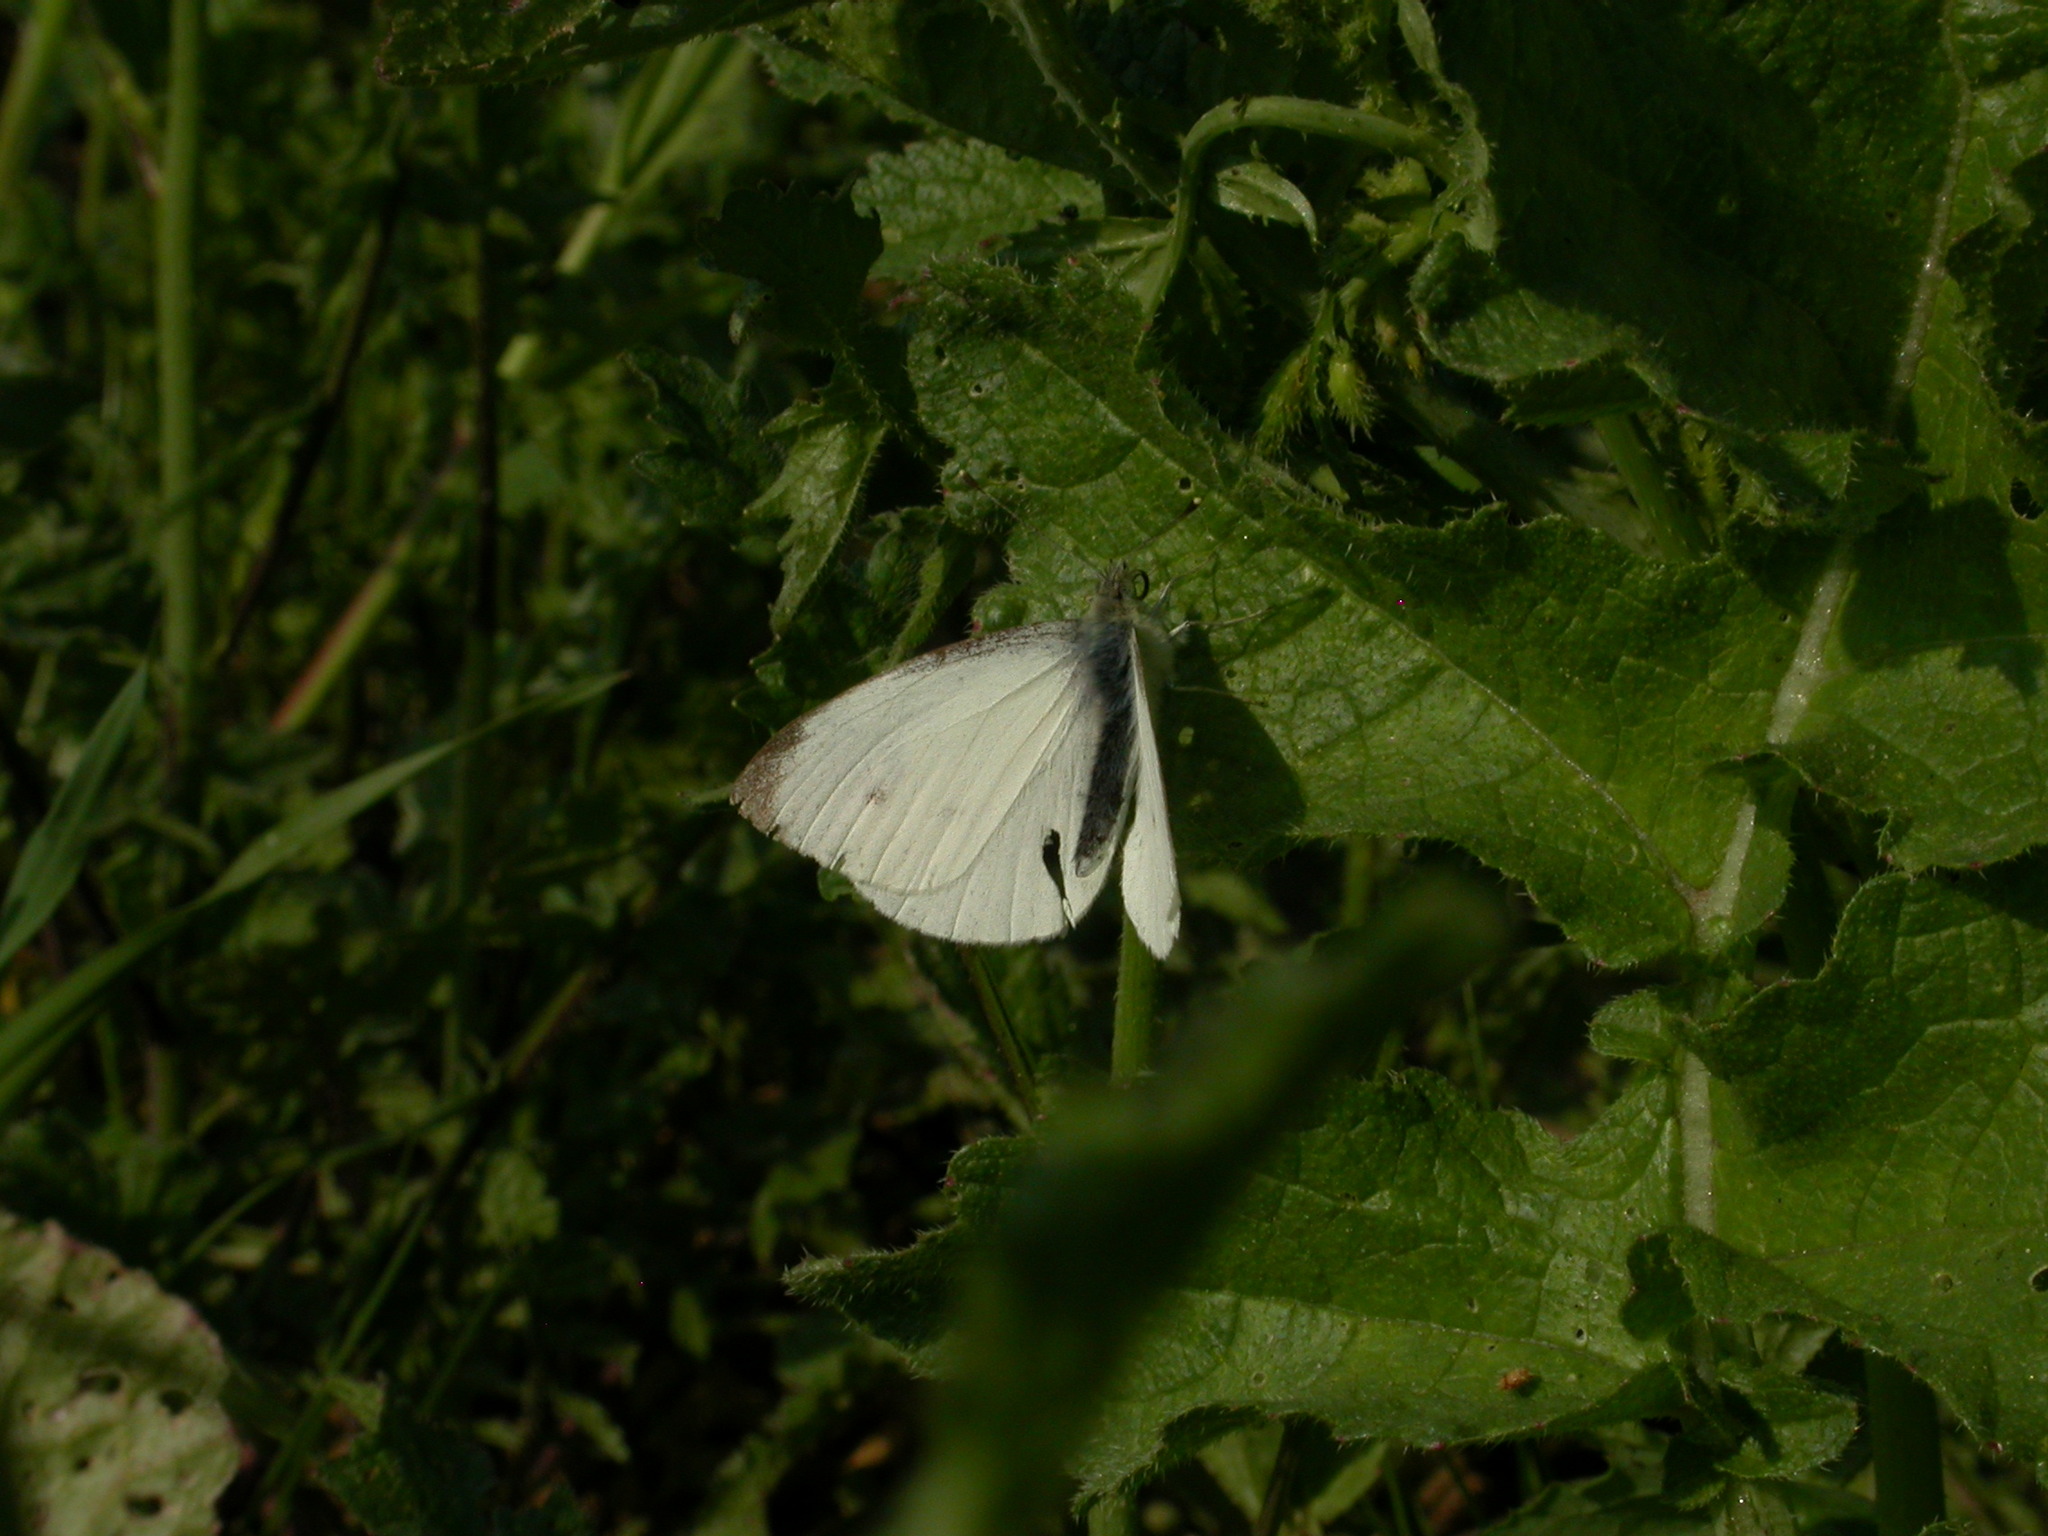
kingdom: Animalia
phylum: Arthropoda
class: Insecta
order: Lepidoptera
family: Pieridae
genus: Pieris
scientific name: Pieris rapae
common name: Small white
